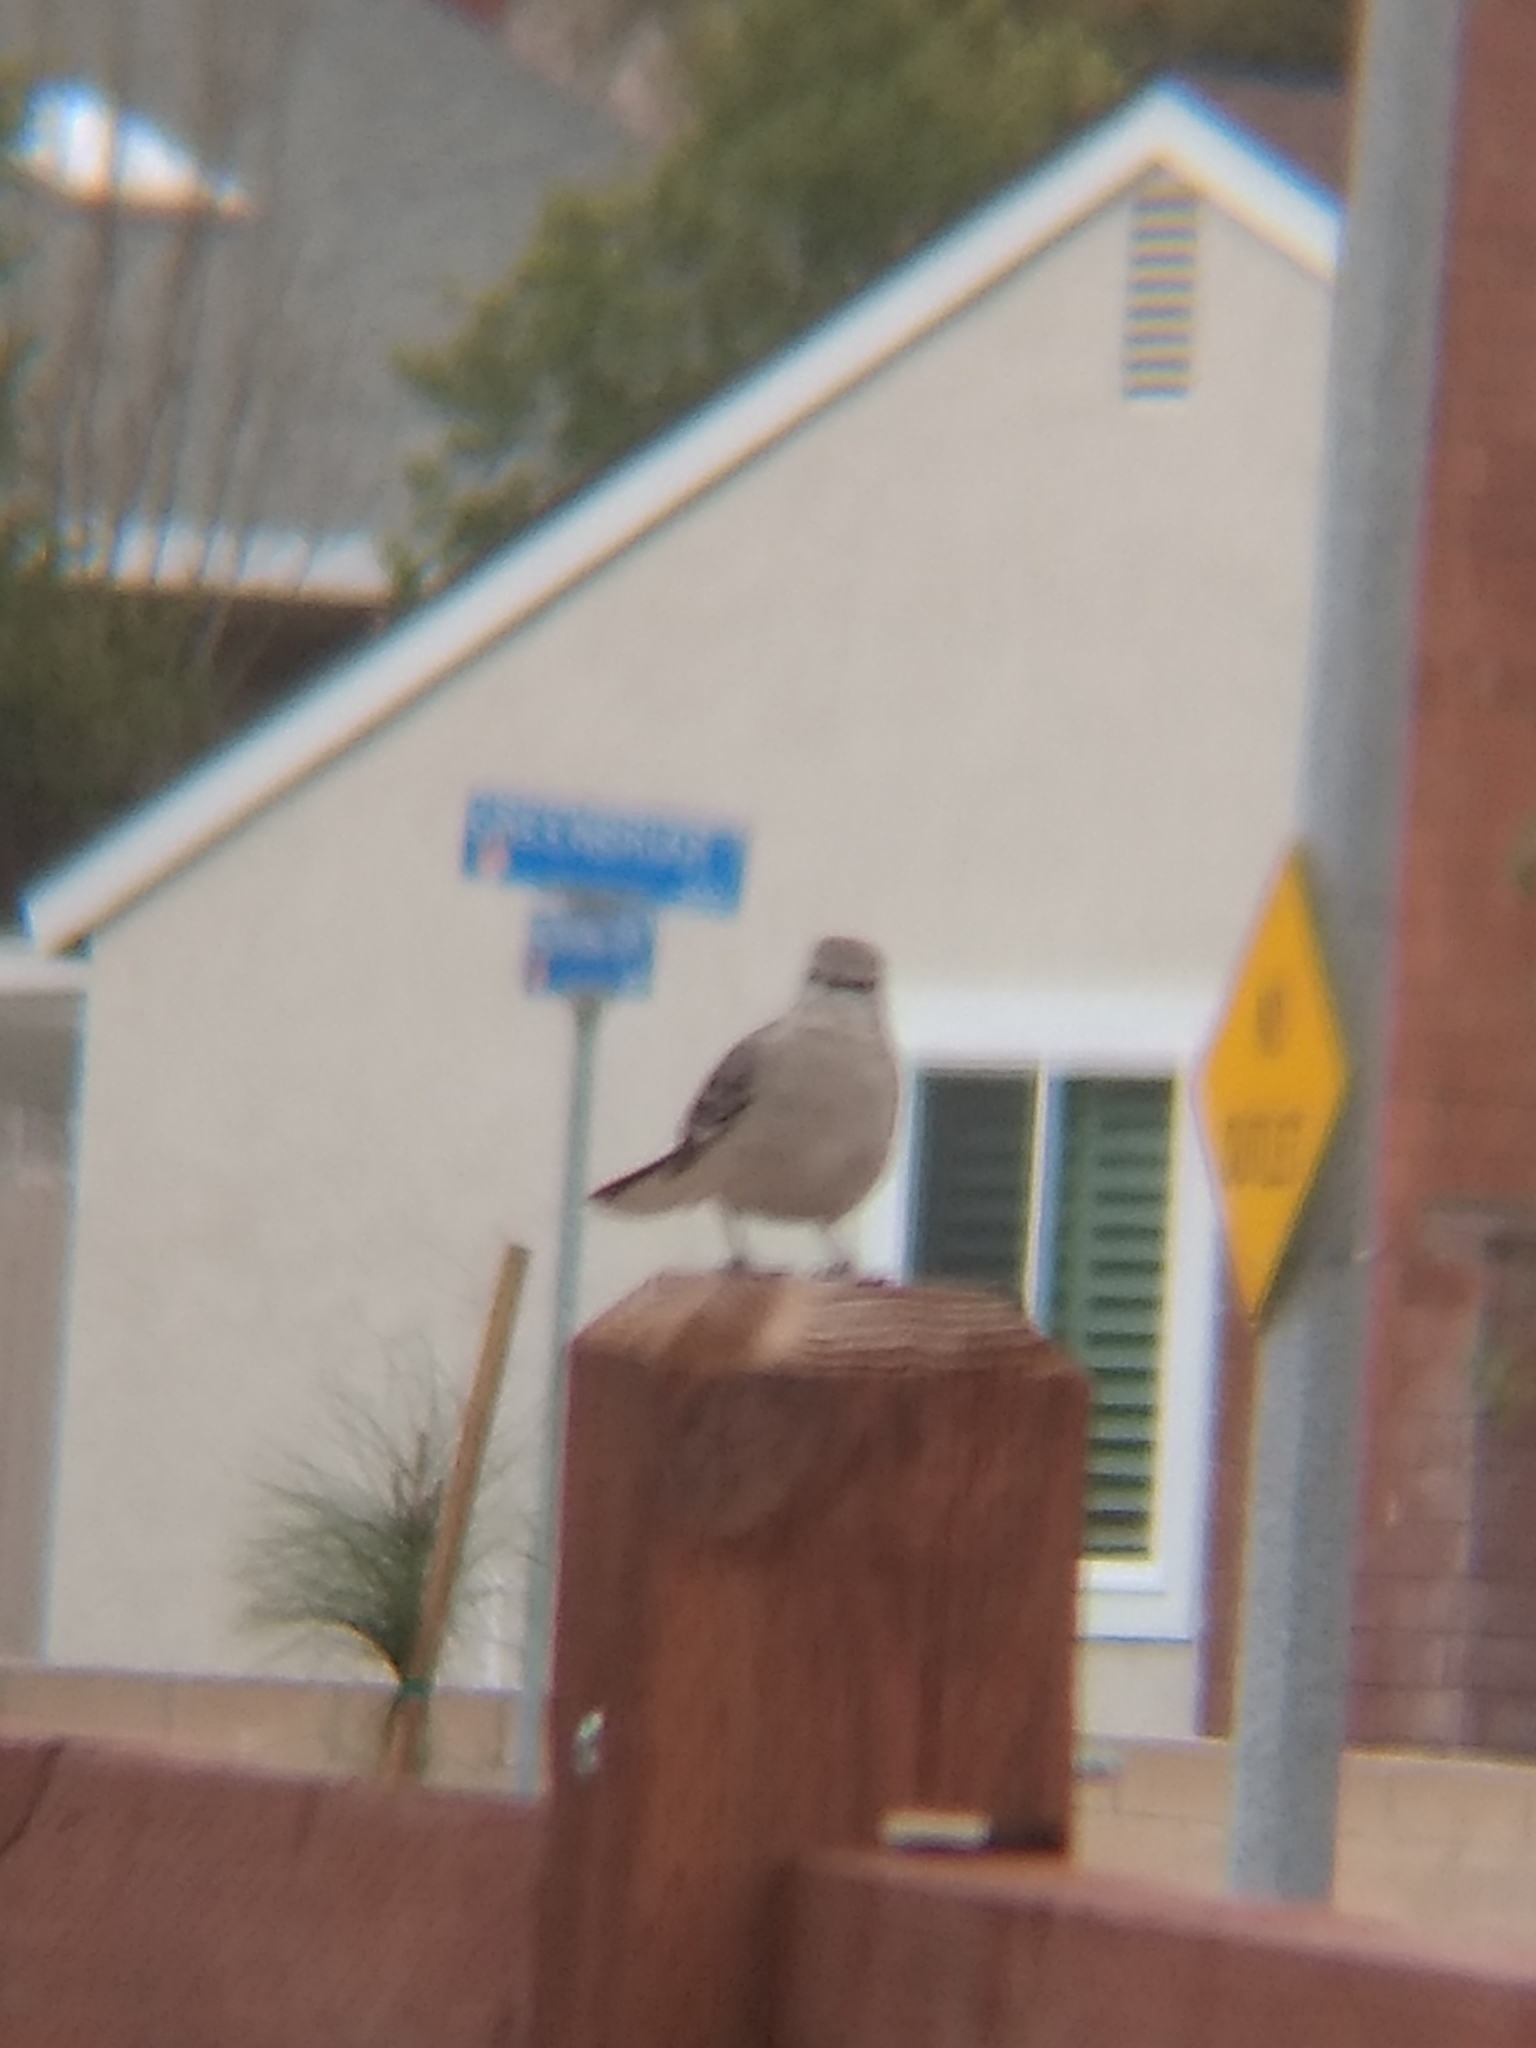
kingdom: Animalia
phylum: Chordata
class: Aves
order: Passeriformes
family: Mimidae
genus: Mimus
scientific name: Mimus polyglottos
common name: Northern mockingbird
